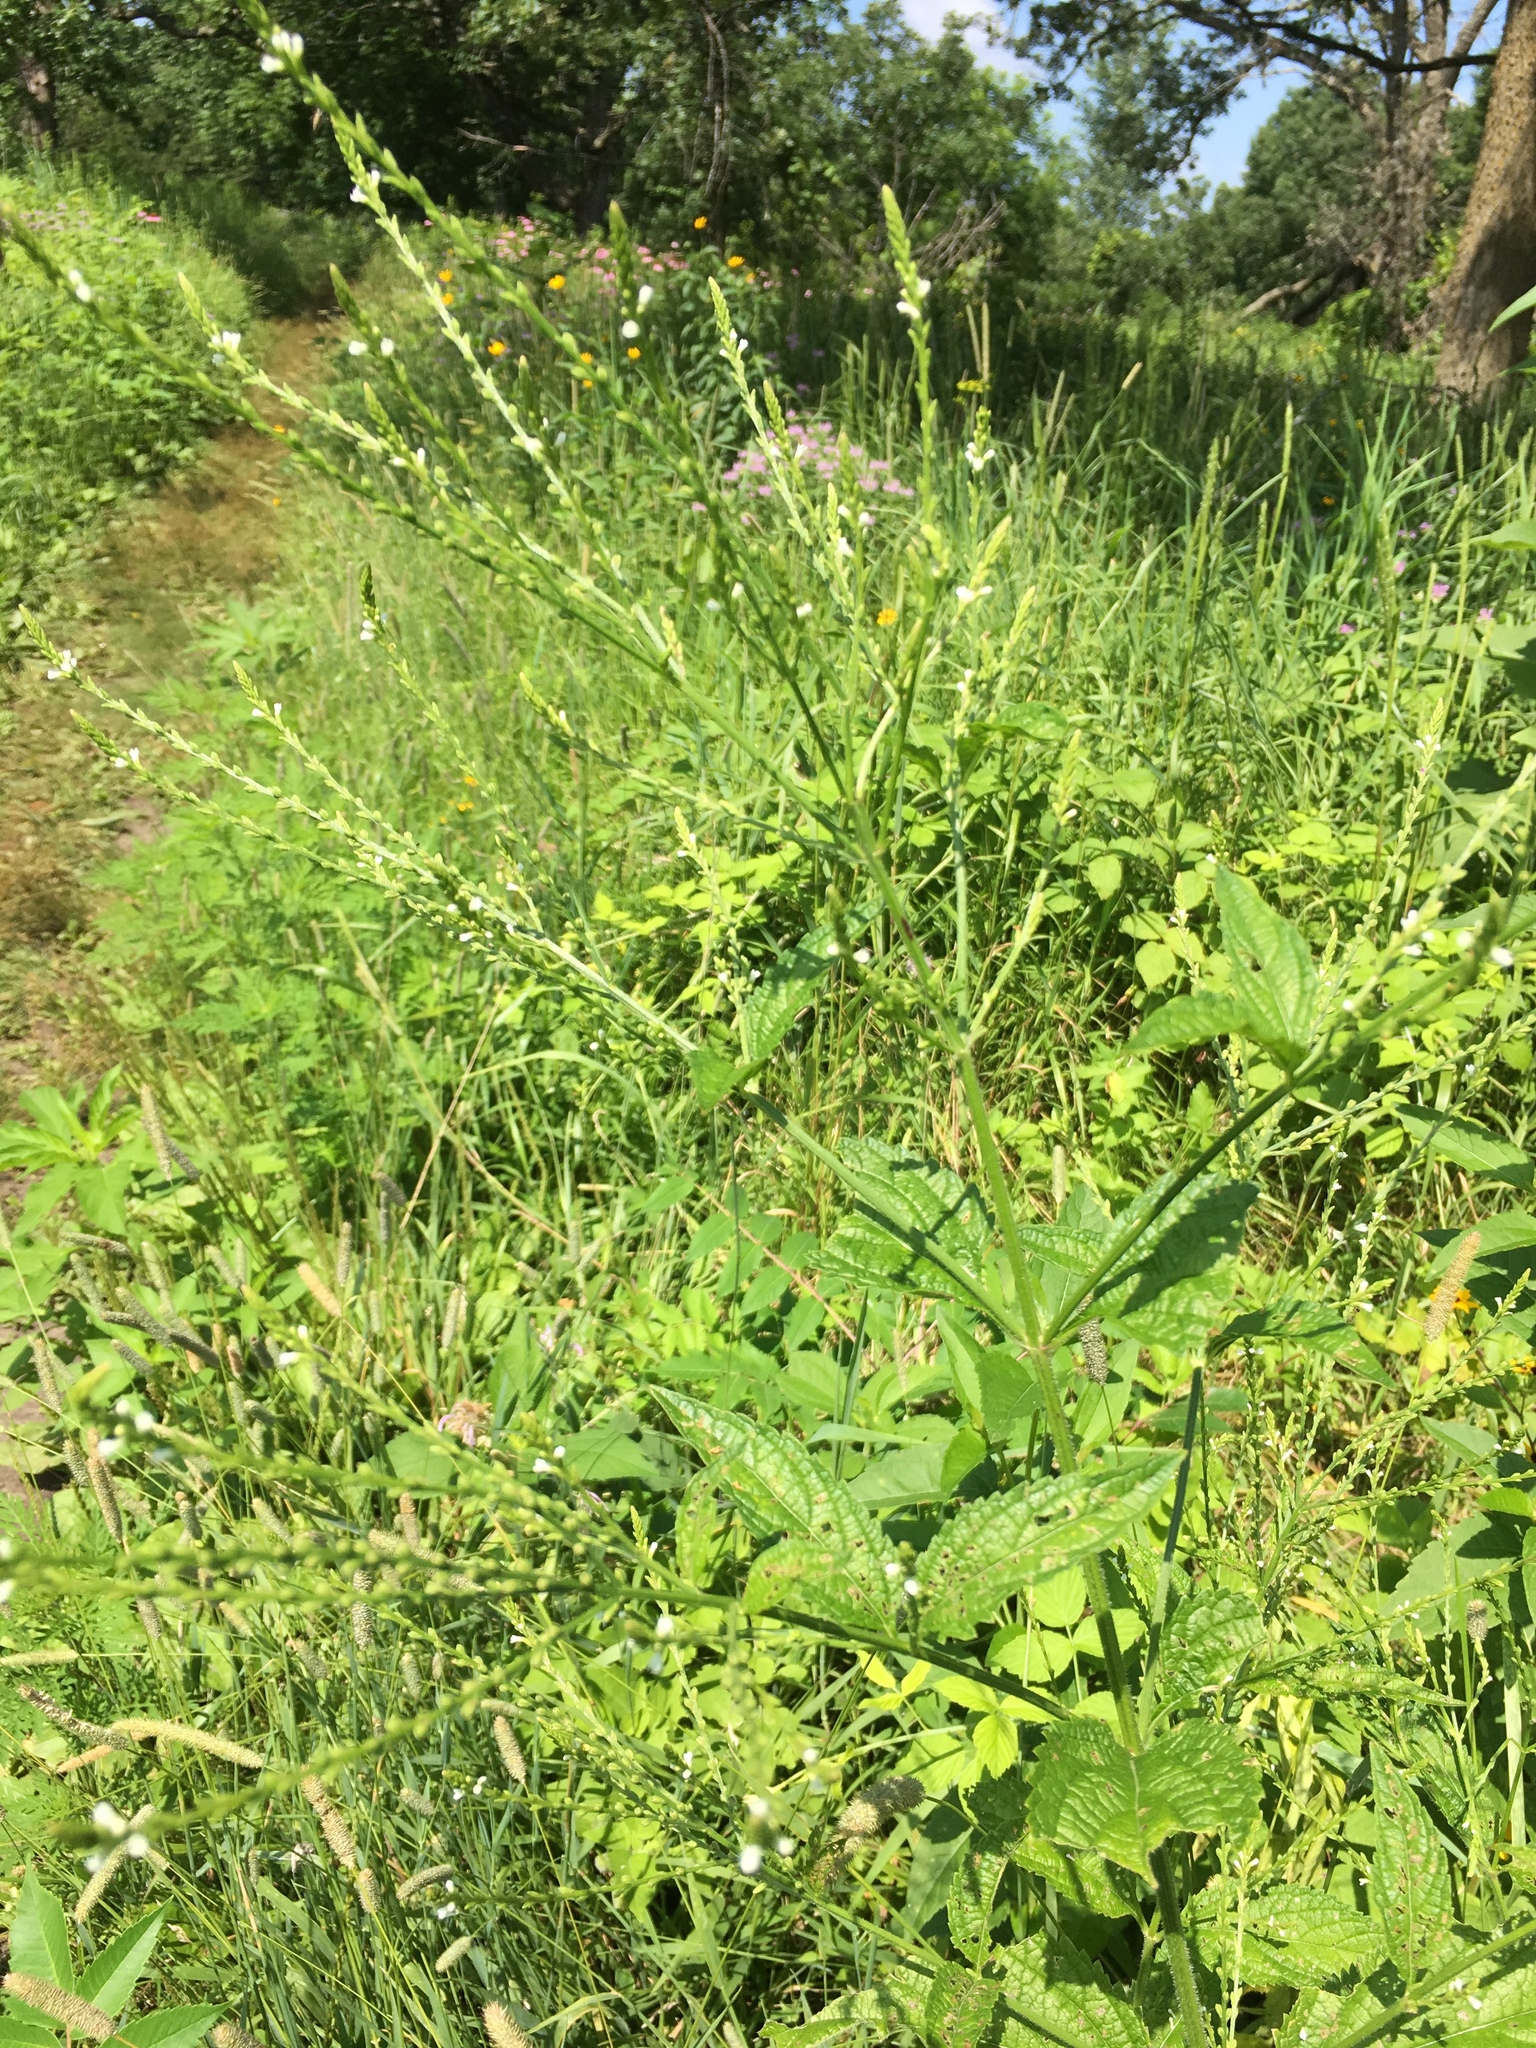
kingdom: Plantae
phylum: Tracheophyta
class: Magnoliopsida
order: Lamiales
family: Verbenaceae
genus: Verbena
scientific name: Verbena urticifolia
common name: Nettle-leaved vervain
